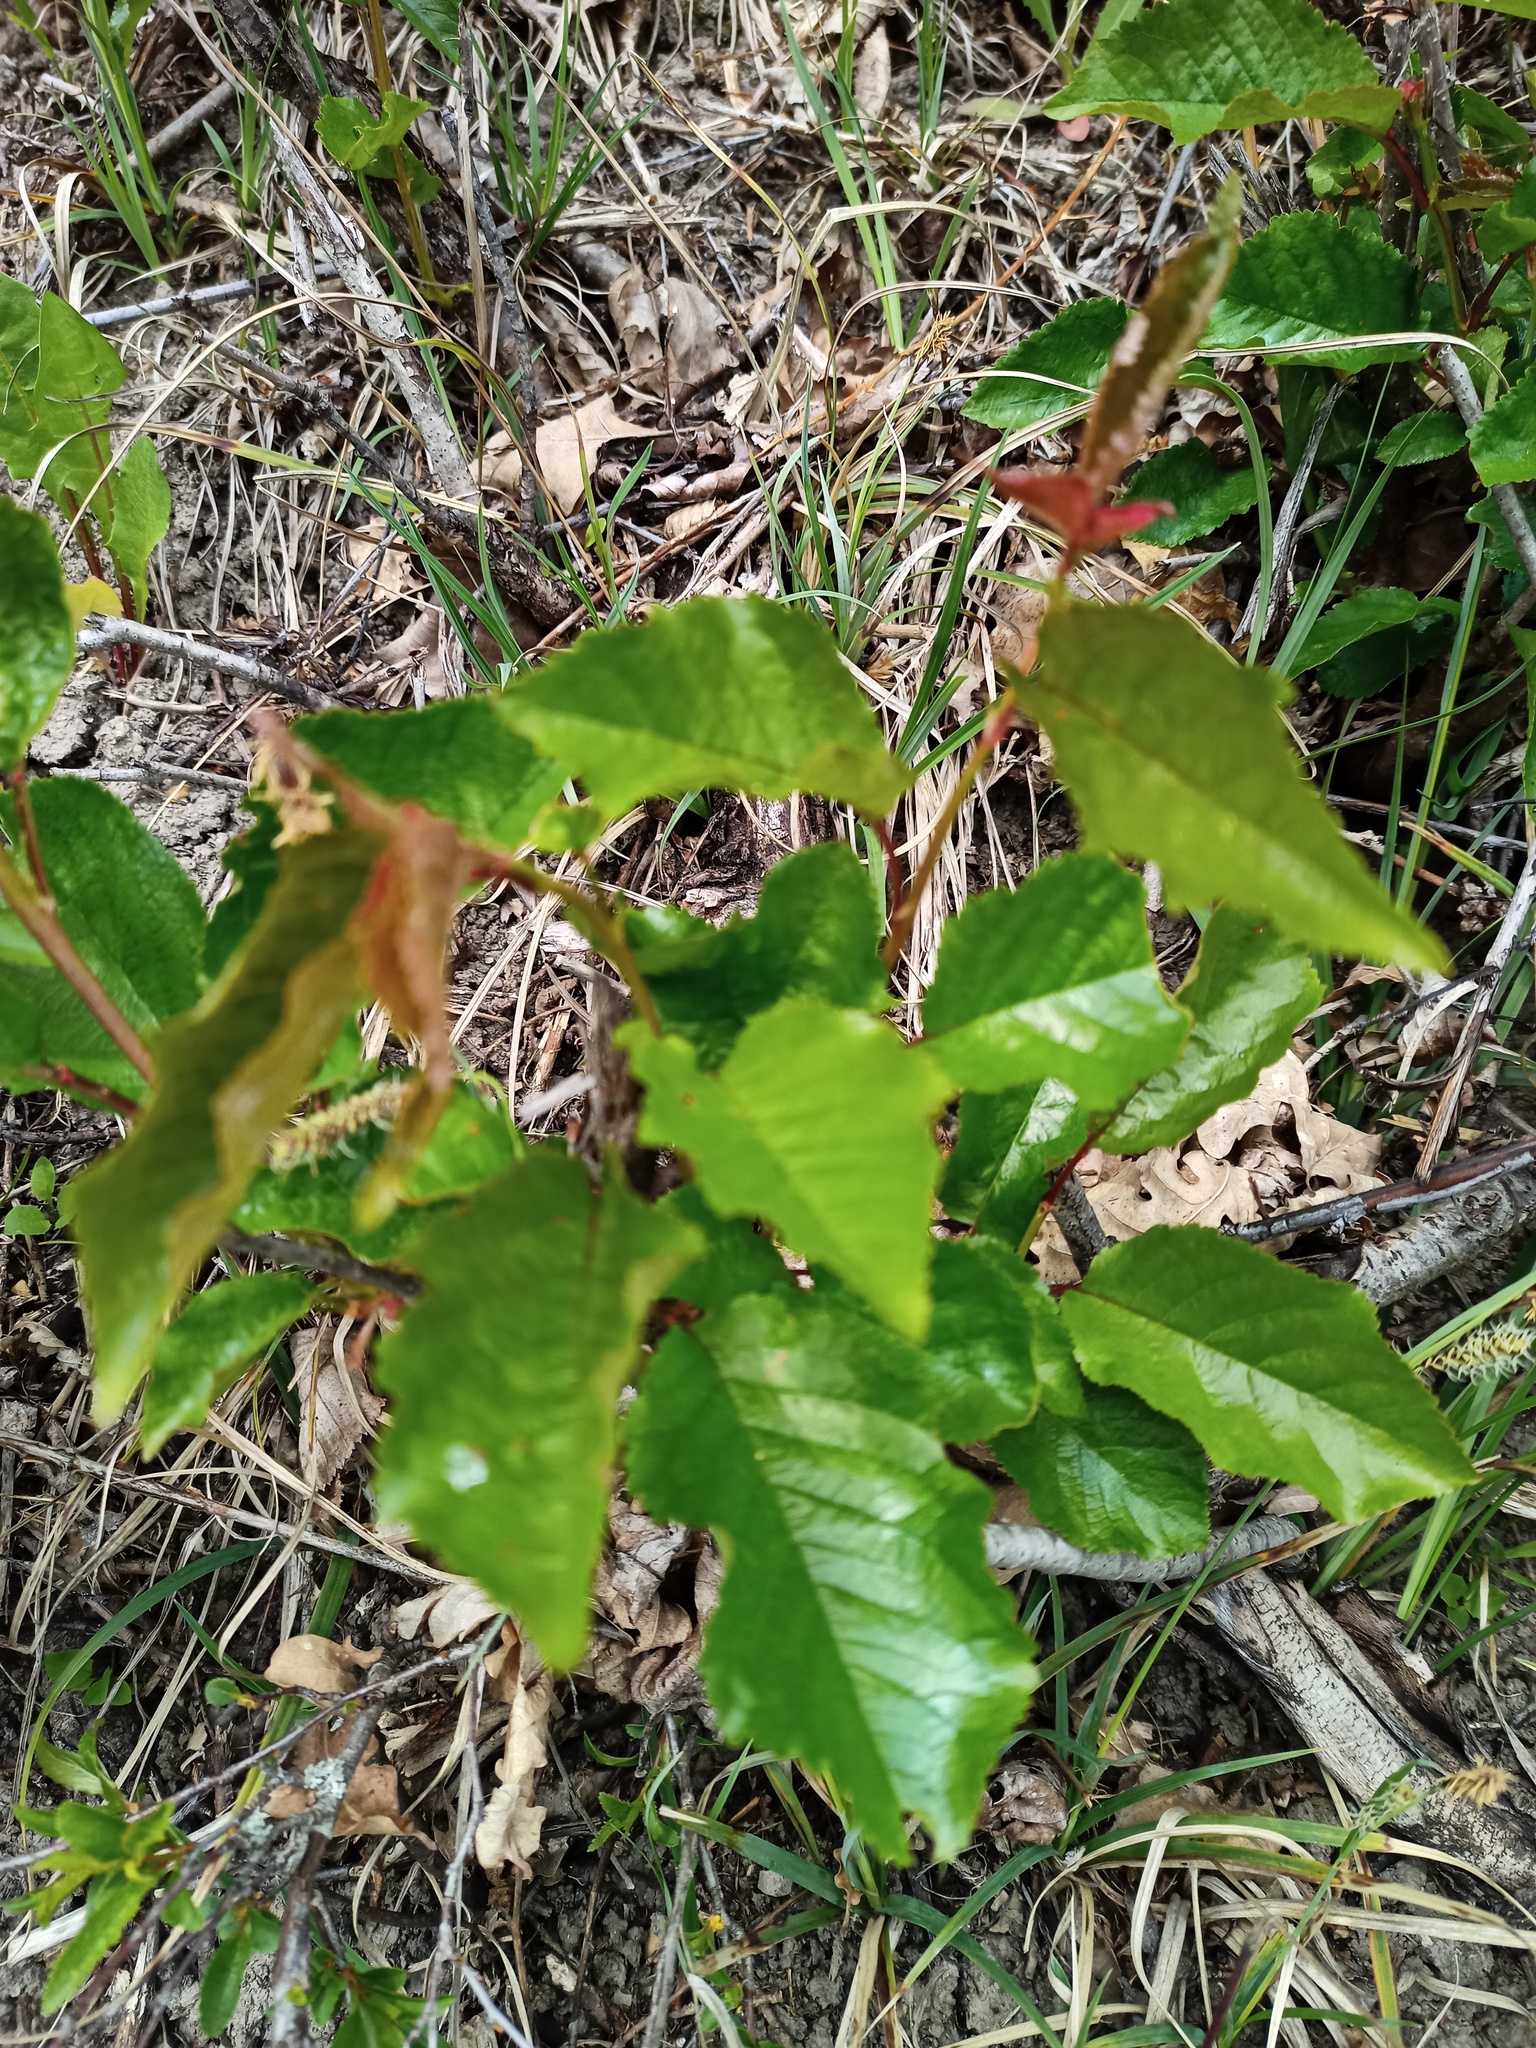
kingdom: Plantae
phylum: Tracheophyta
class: Magnoliopsida
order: Rosales
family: Rosaceae
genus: Prunus
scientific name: Prunus avium
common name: Sweet cherry
